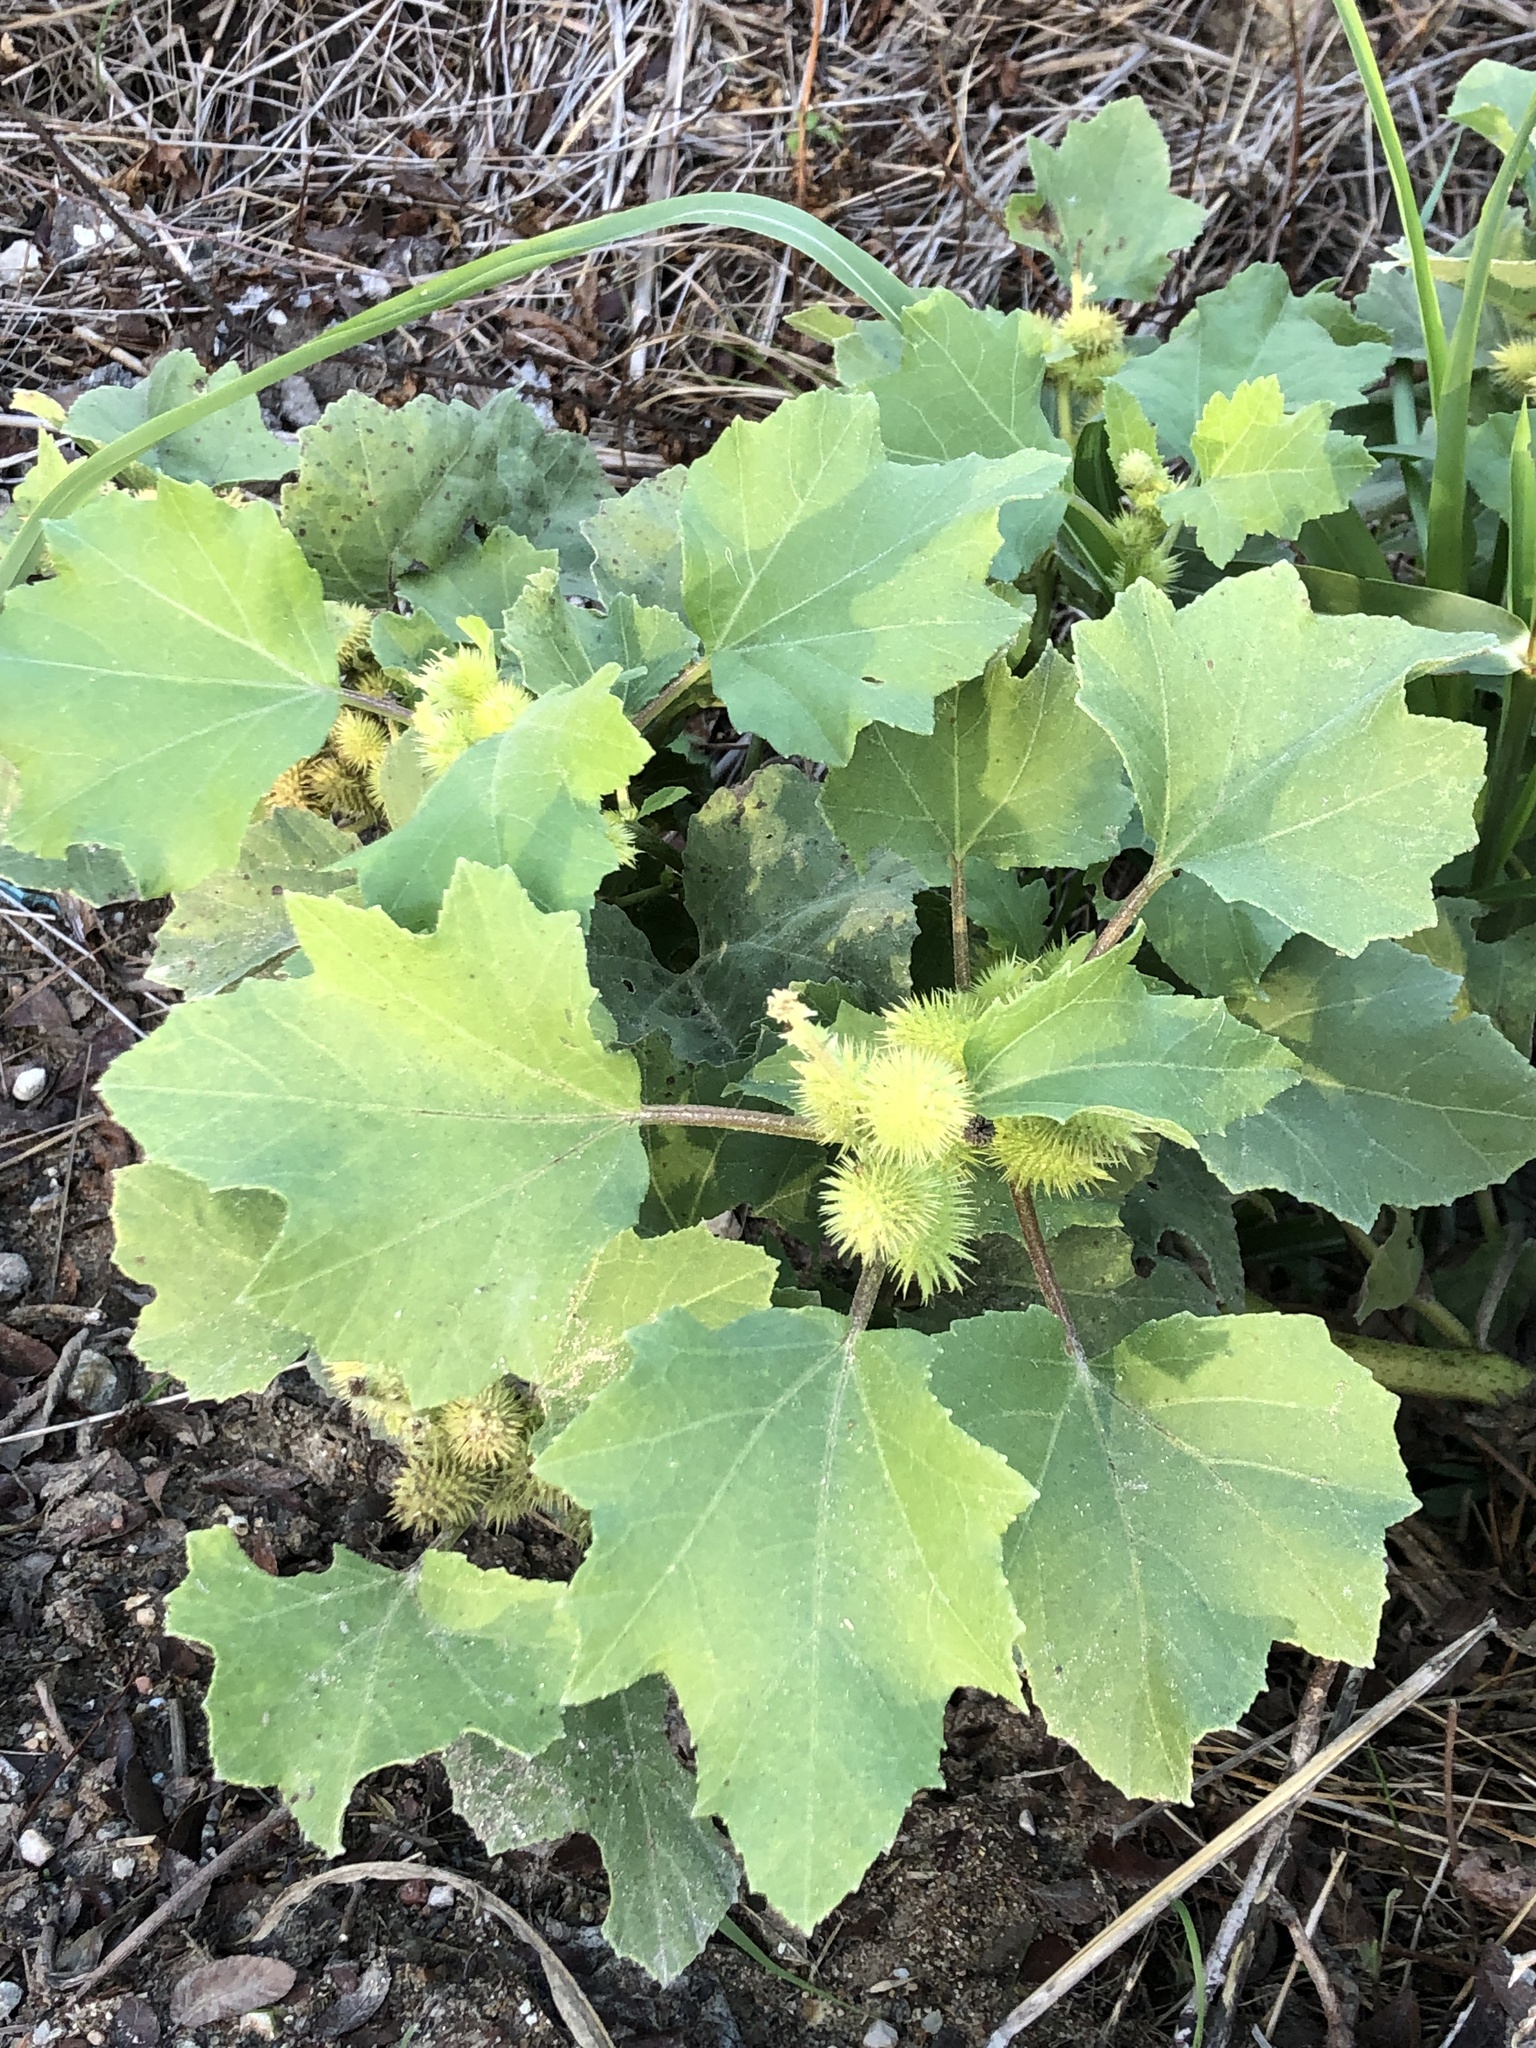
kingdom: Plantae
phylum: Tracheophyta
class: Magnoliopsida
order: Asterales
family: Asteraceae
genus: Xanthium
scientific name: Xanthium strumarium
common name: Rough cocklebur
